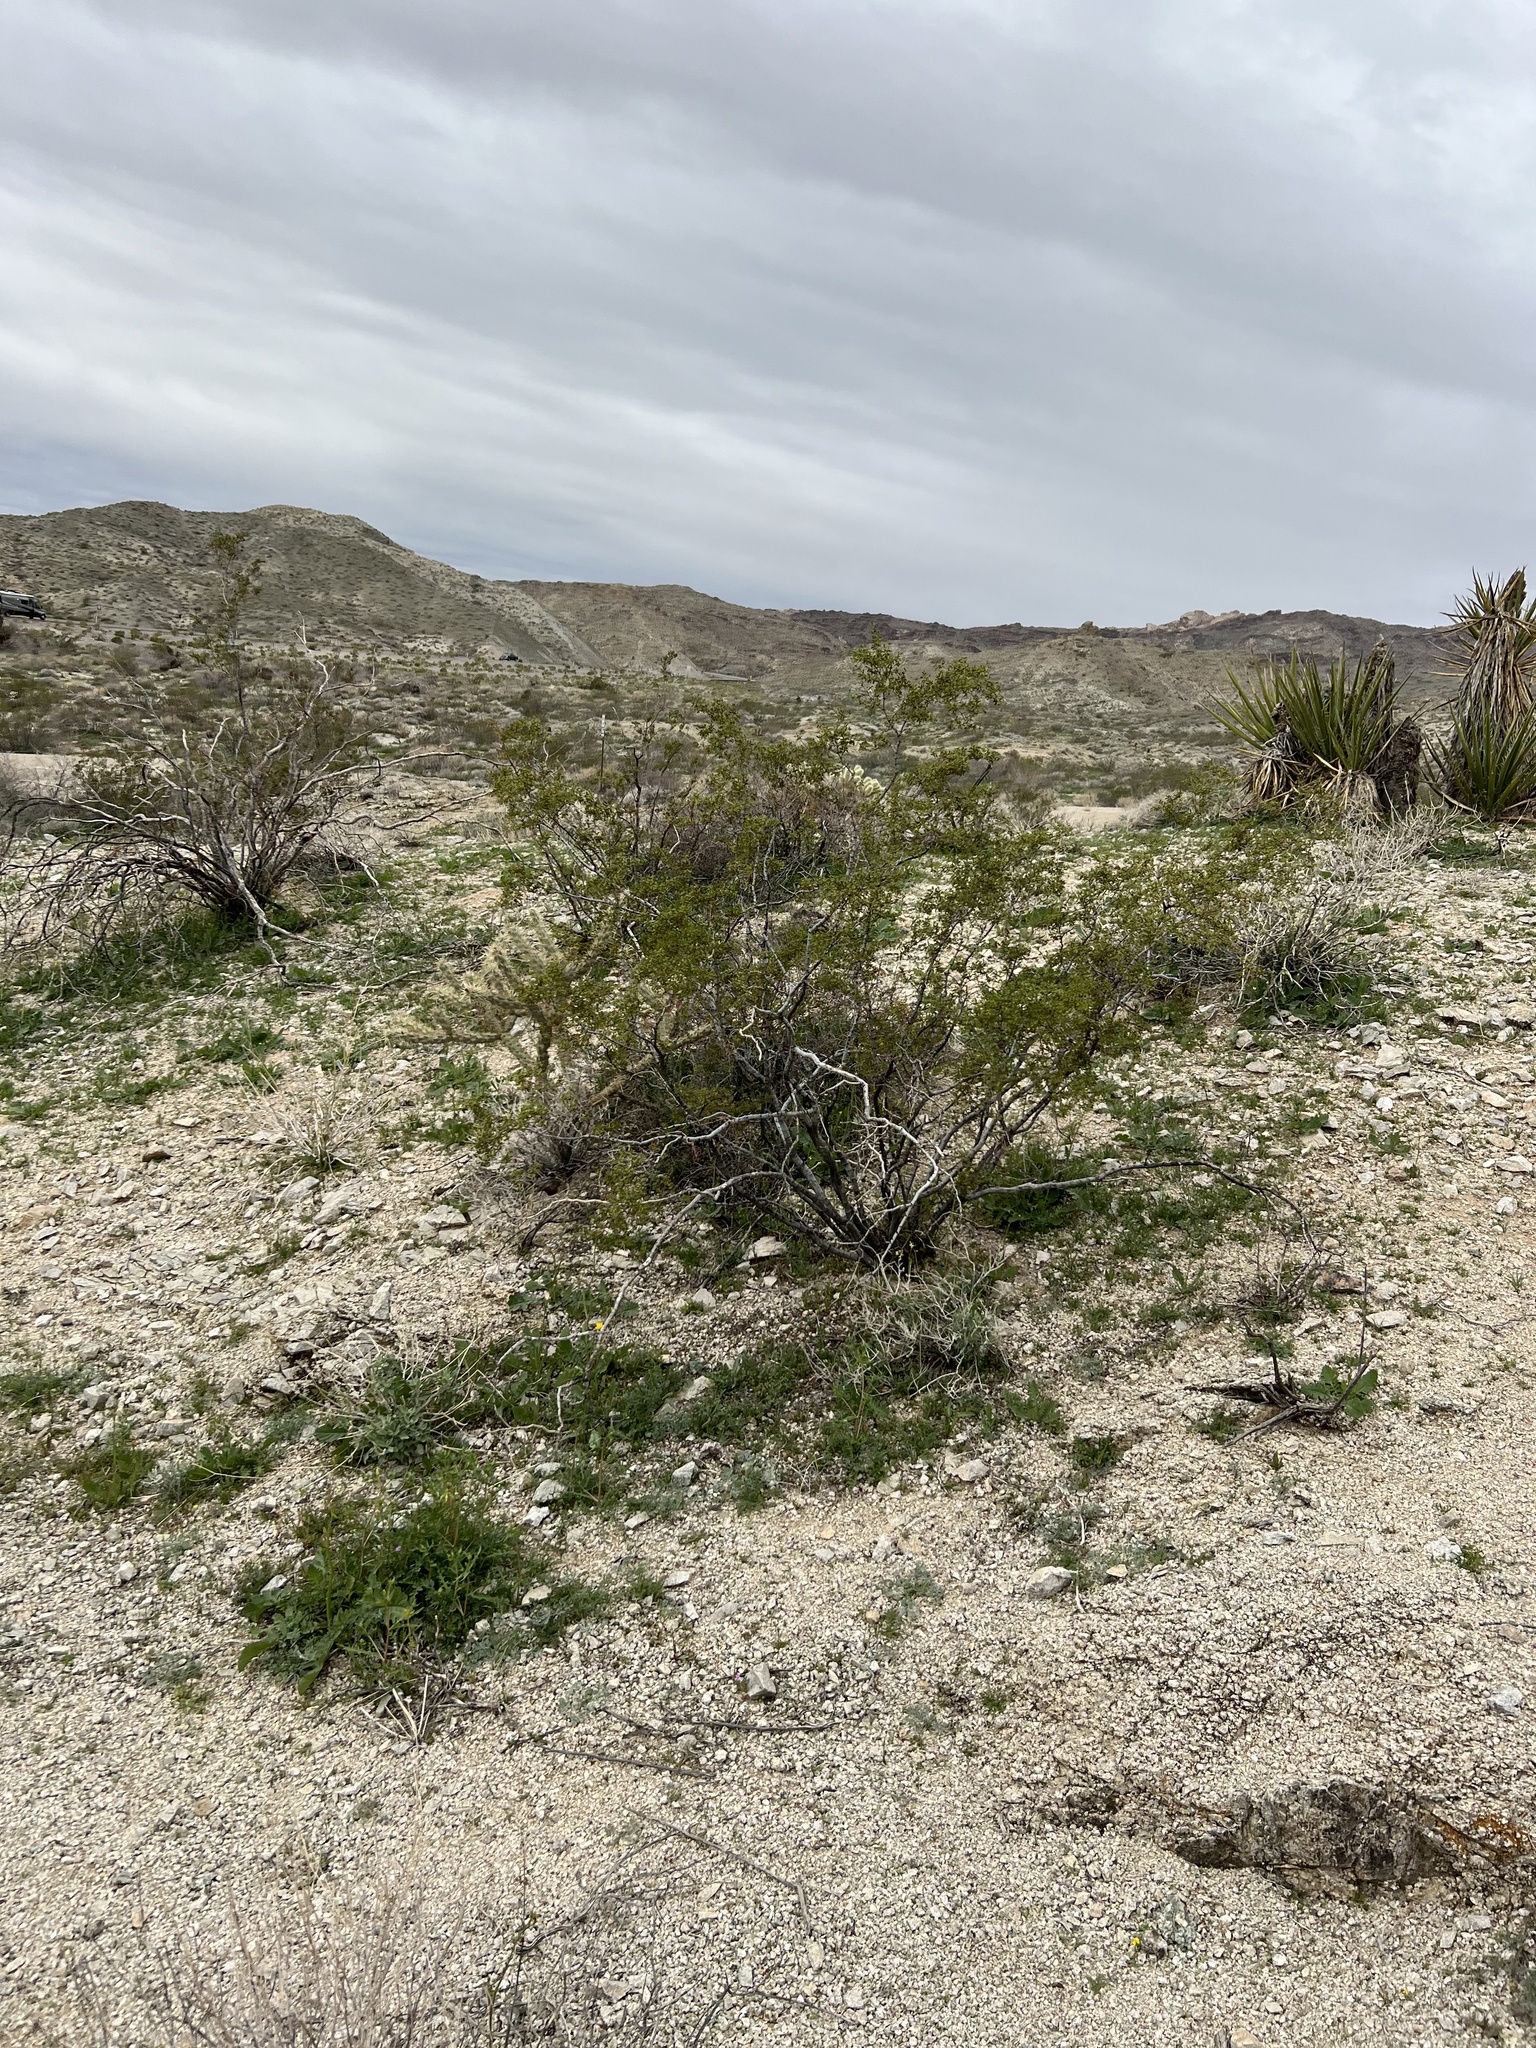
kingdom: Plantae
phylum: Tracheophyta
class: Magnoliopsida
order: Zygophyllales
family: Zygophyllaceae
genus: Larrea
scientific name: Larrea tridentata
